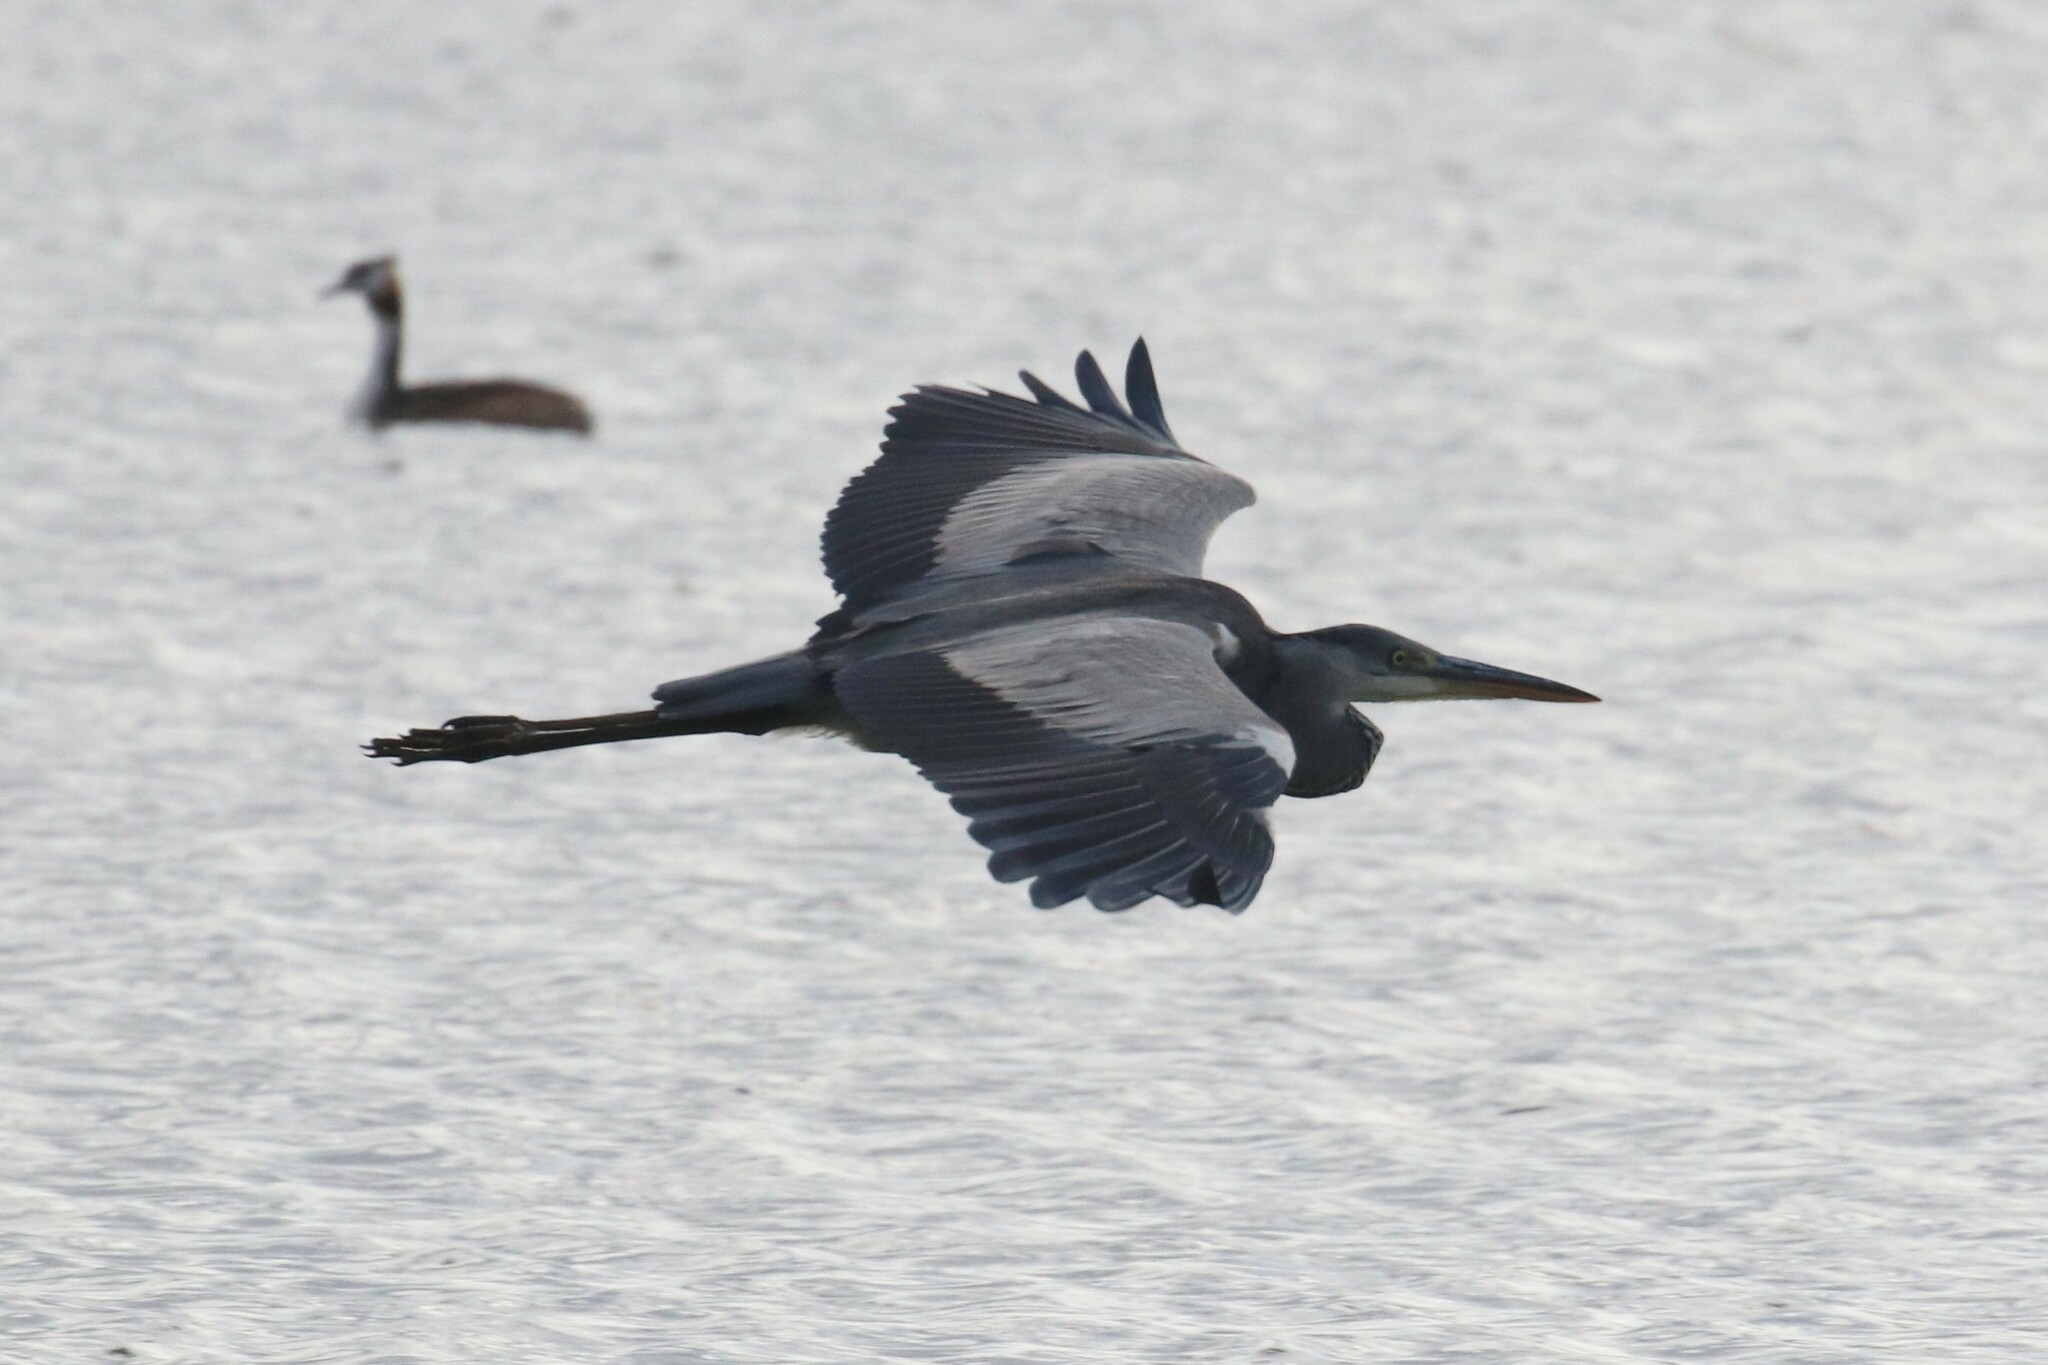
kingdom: Animalia
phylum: Chordata
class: Aves
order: Pelecaniformes
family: Ardeidae
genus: Ardea
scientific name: Ardea cinerea
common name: Grey heron
